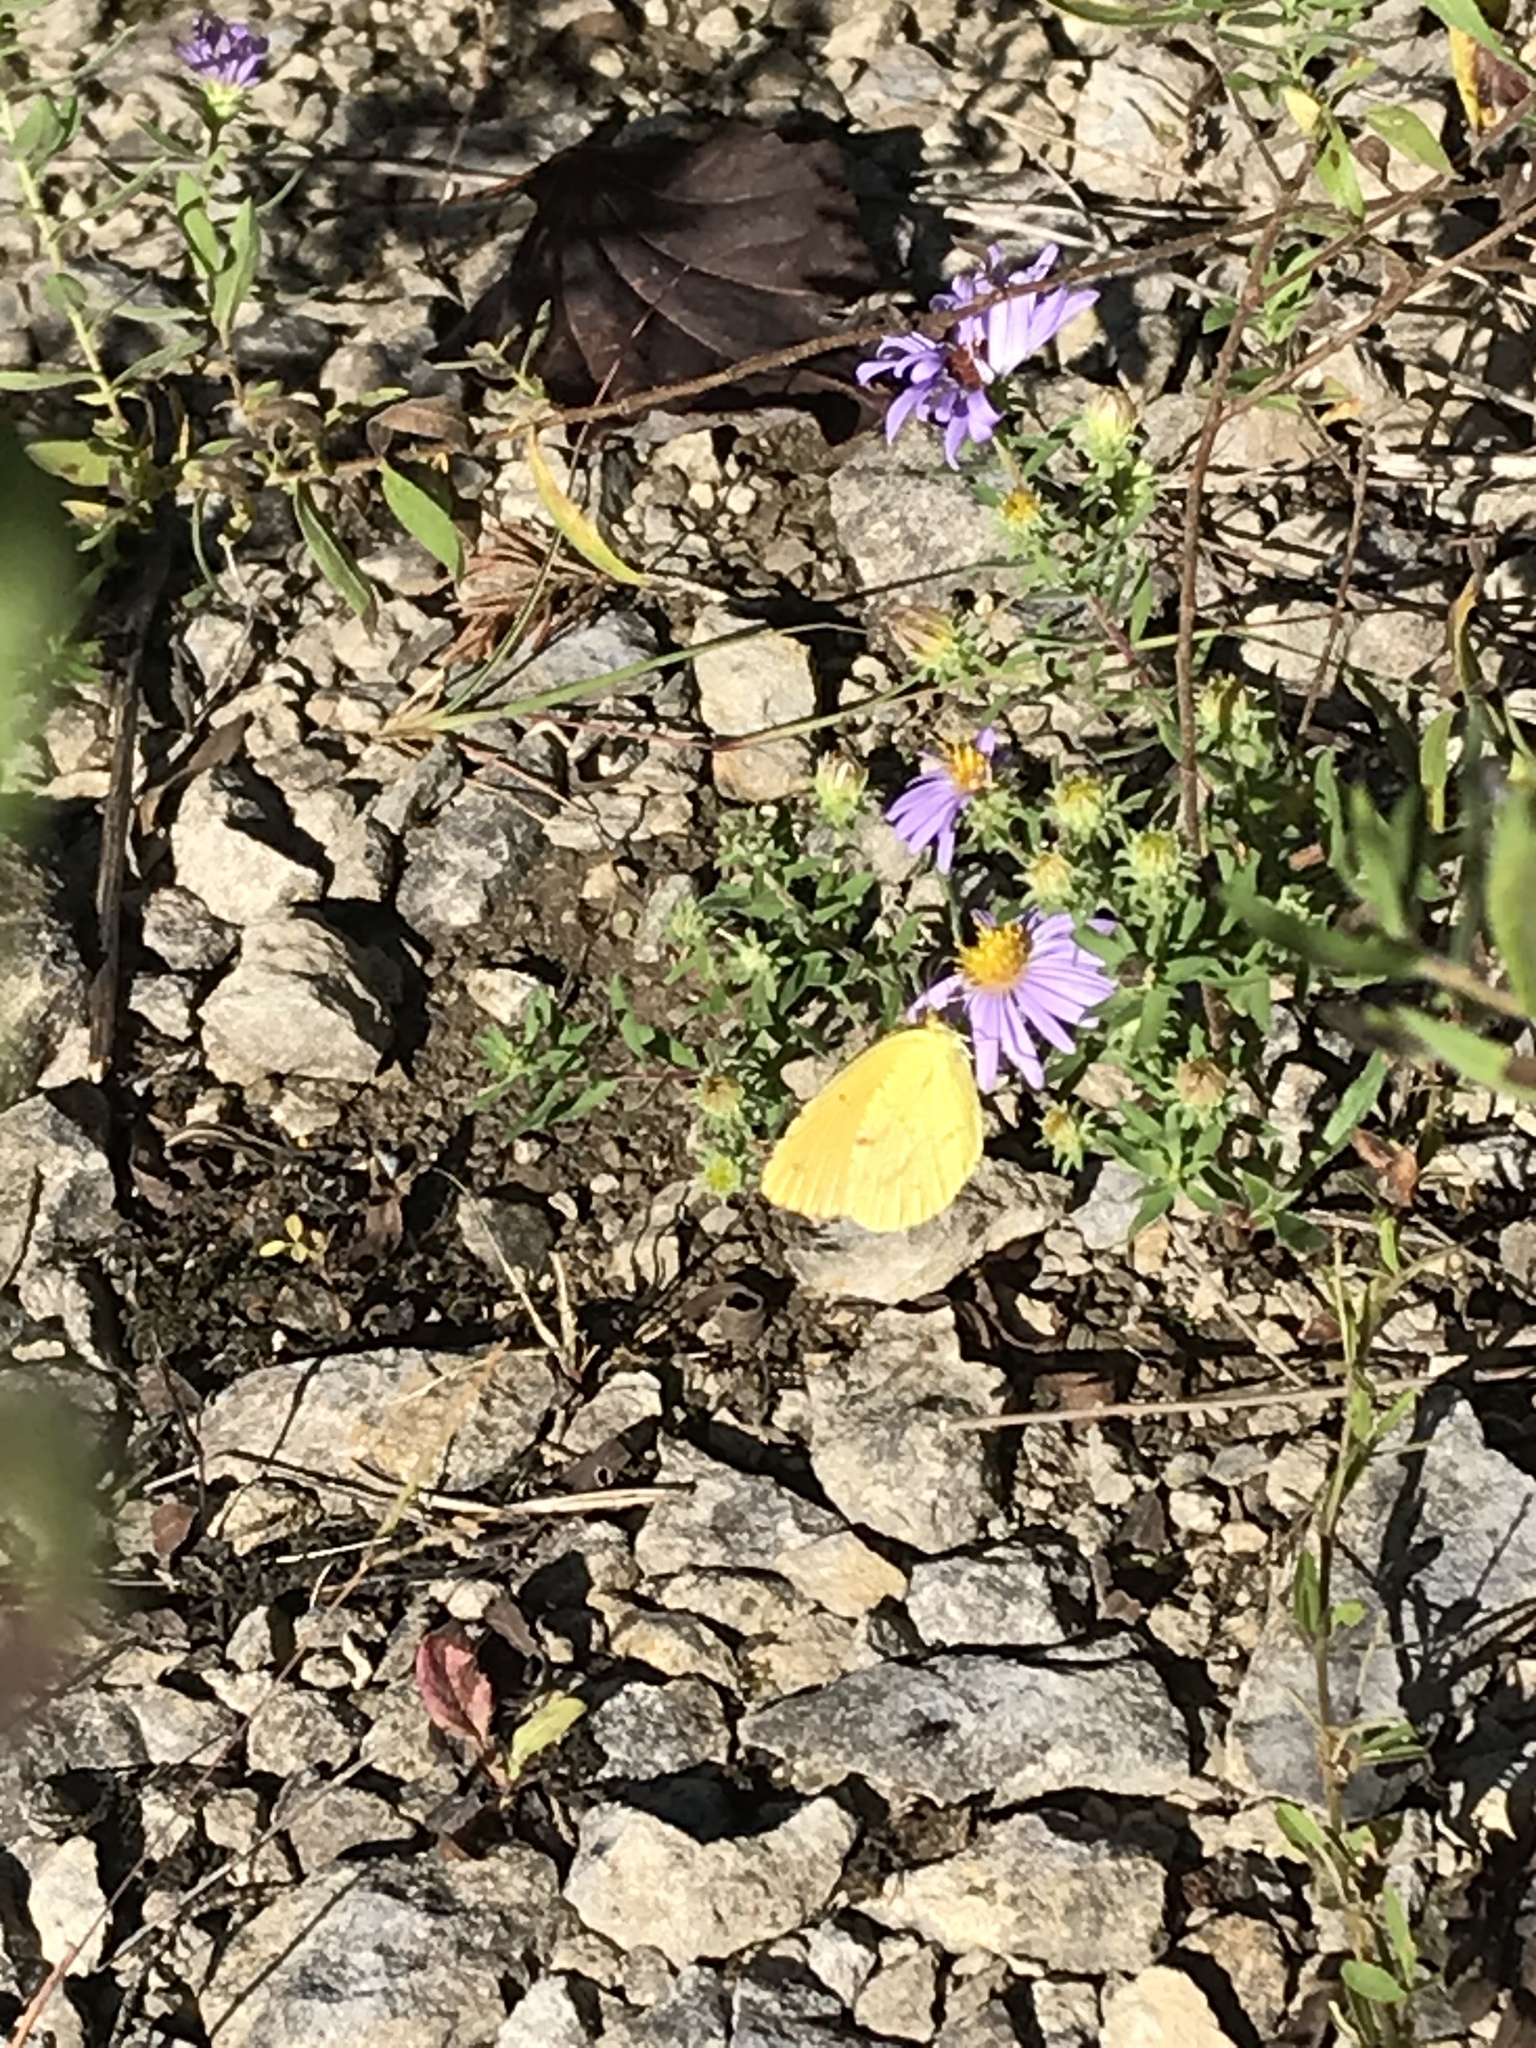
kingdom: Animalia
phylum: Arthropoda
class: Insecta
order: Lepidoptera
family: Pieridae
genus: Abaeis
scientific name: Abaeis nicippe
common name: Sleepy orange
